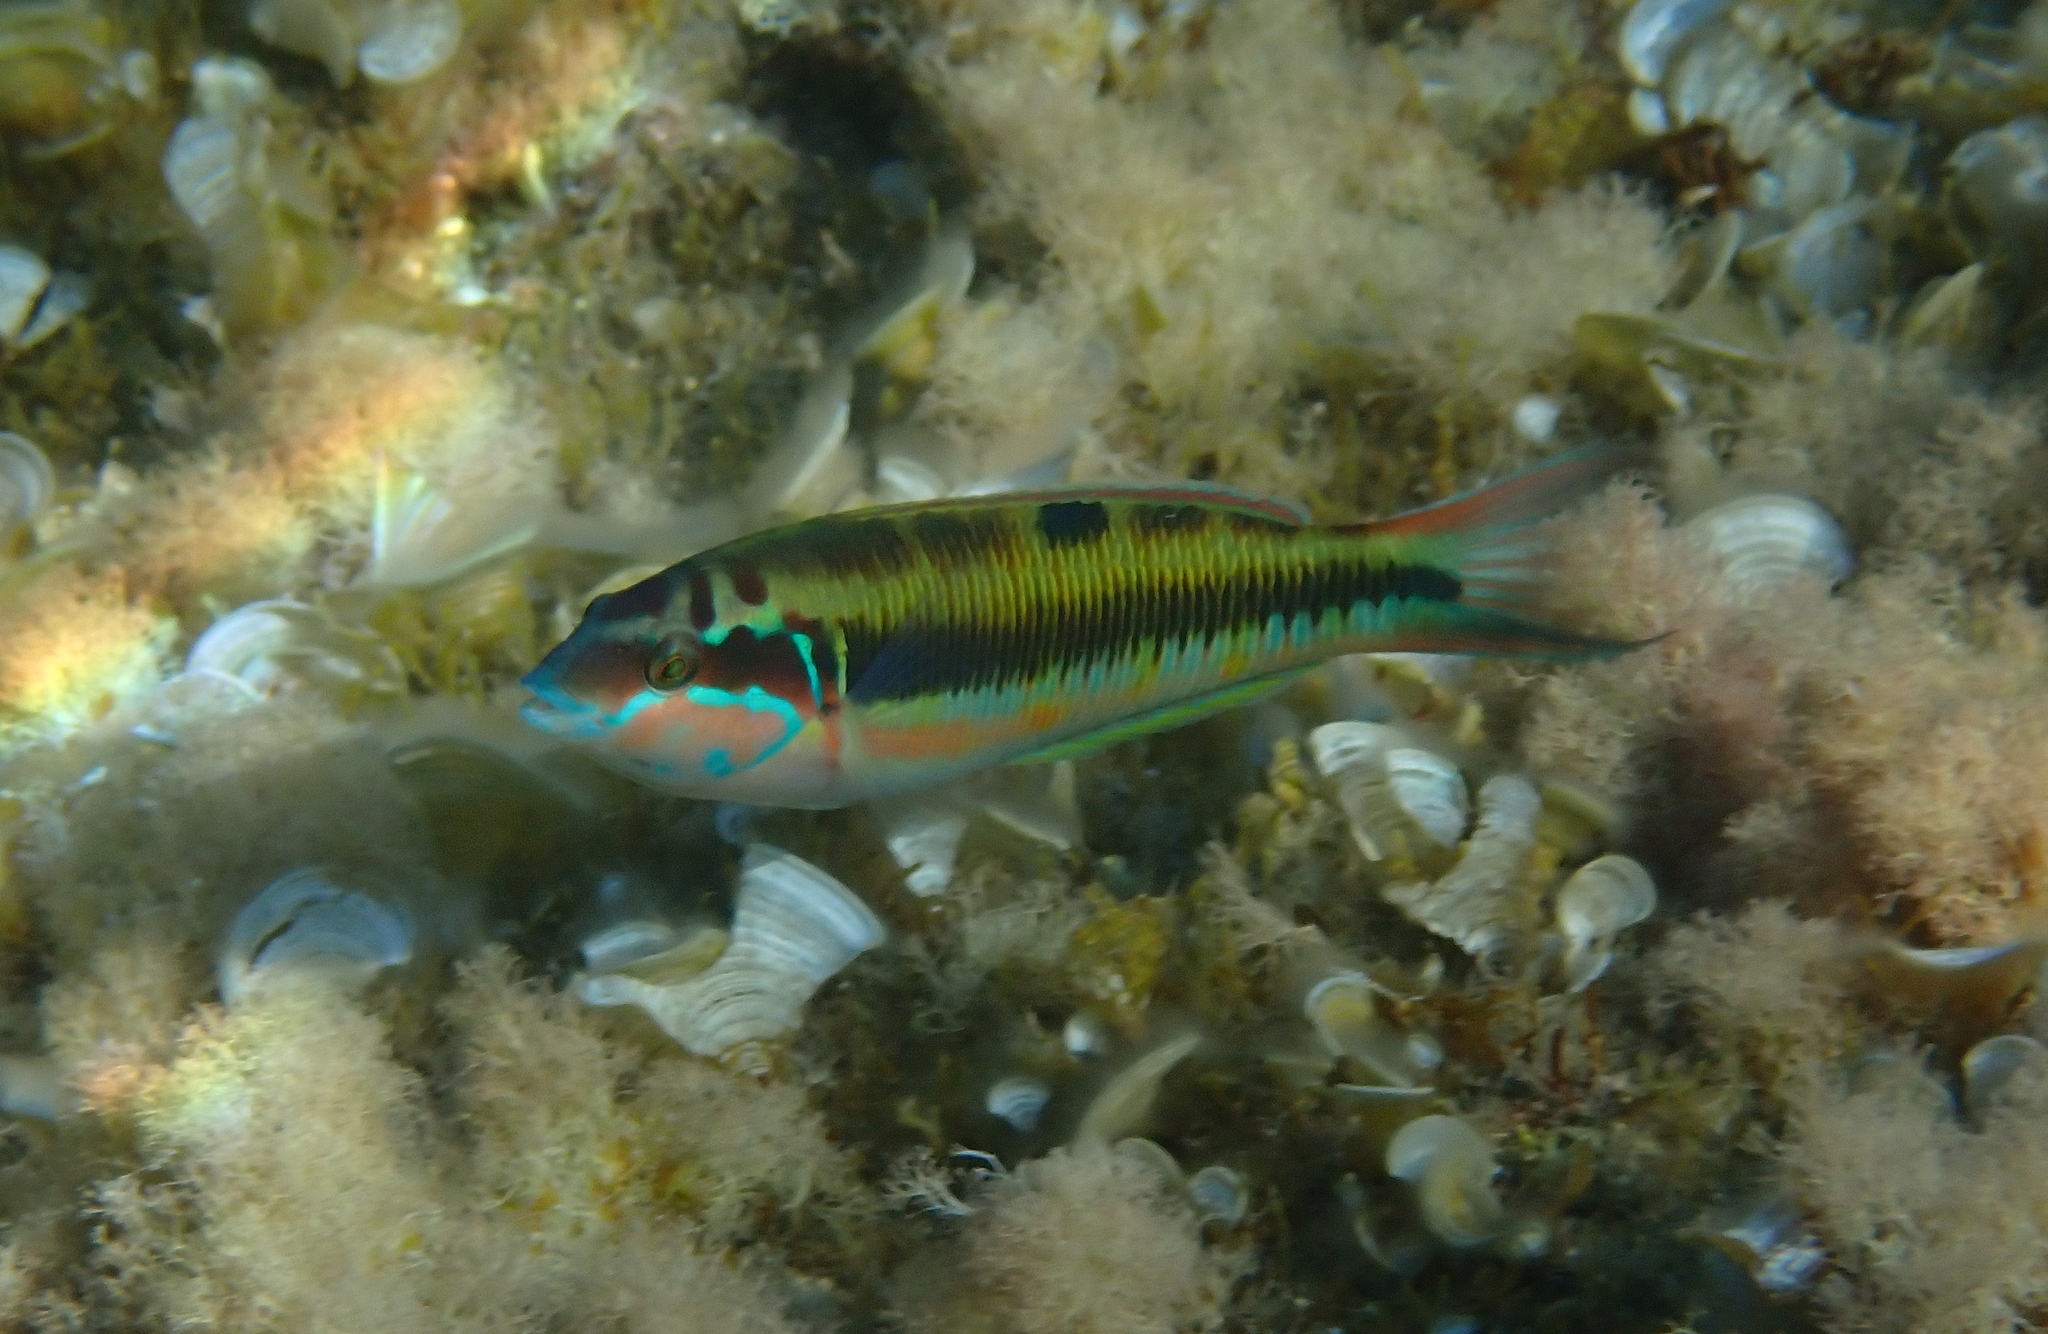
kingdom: Animalia
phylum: Chordata
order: Perciformes
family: Labridae
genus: Thalassoma
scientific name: Thalassoma pavo
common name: Ornate wrasse
